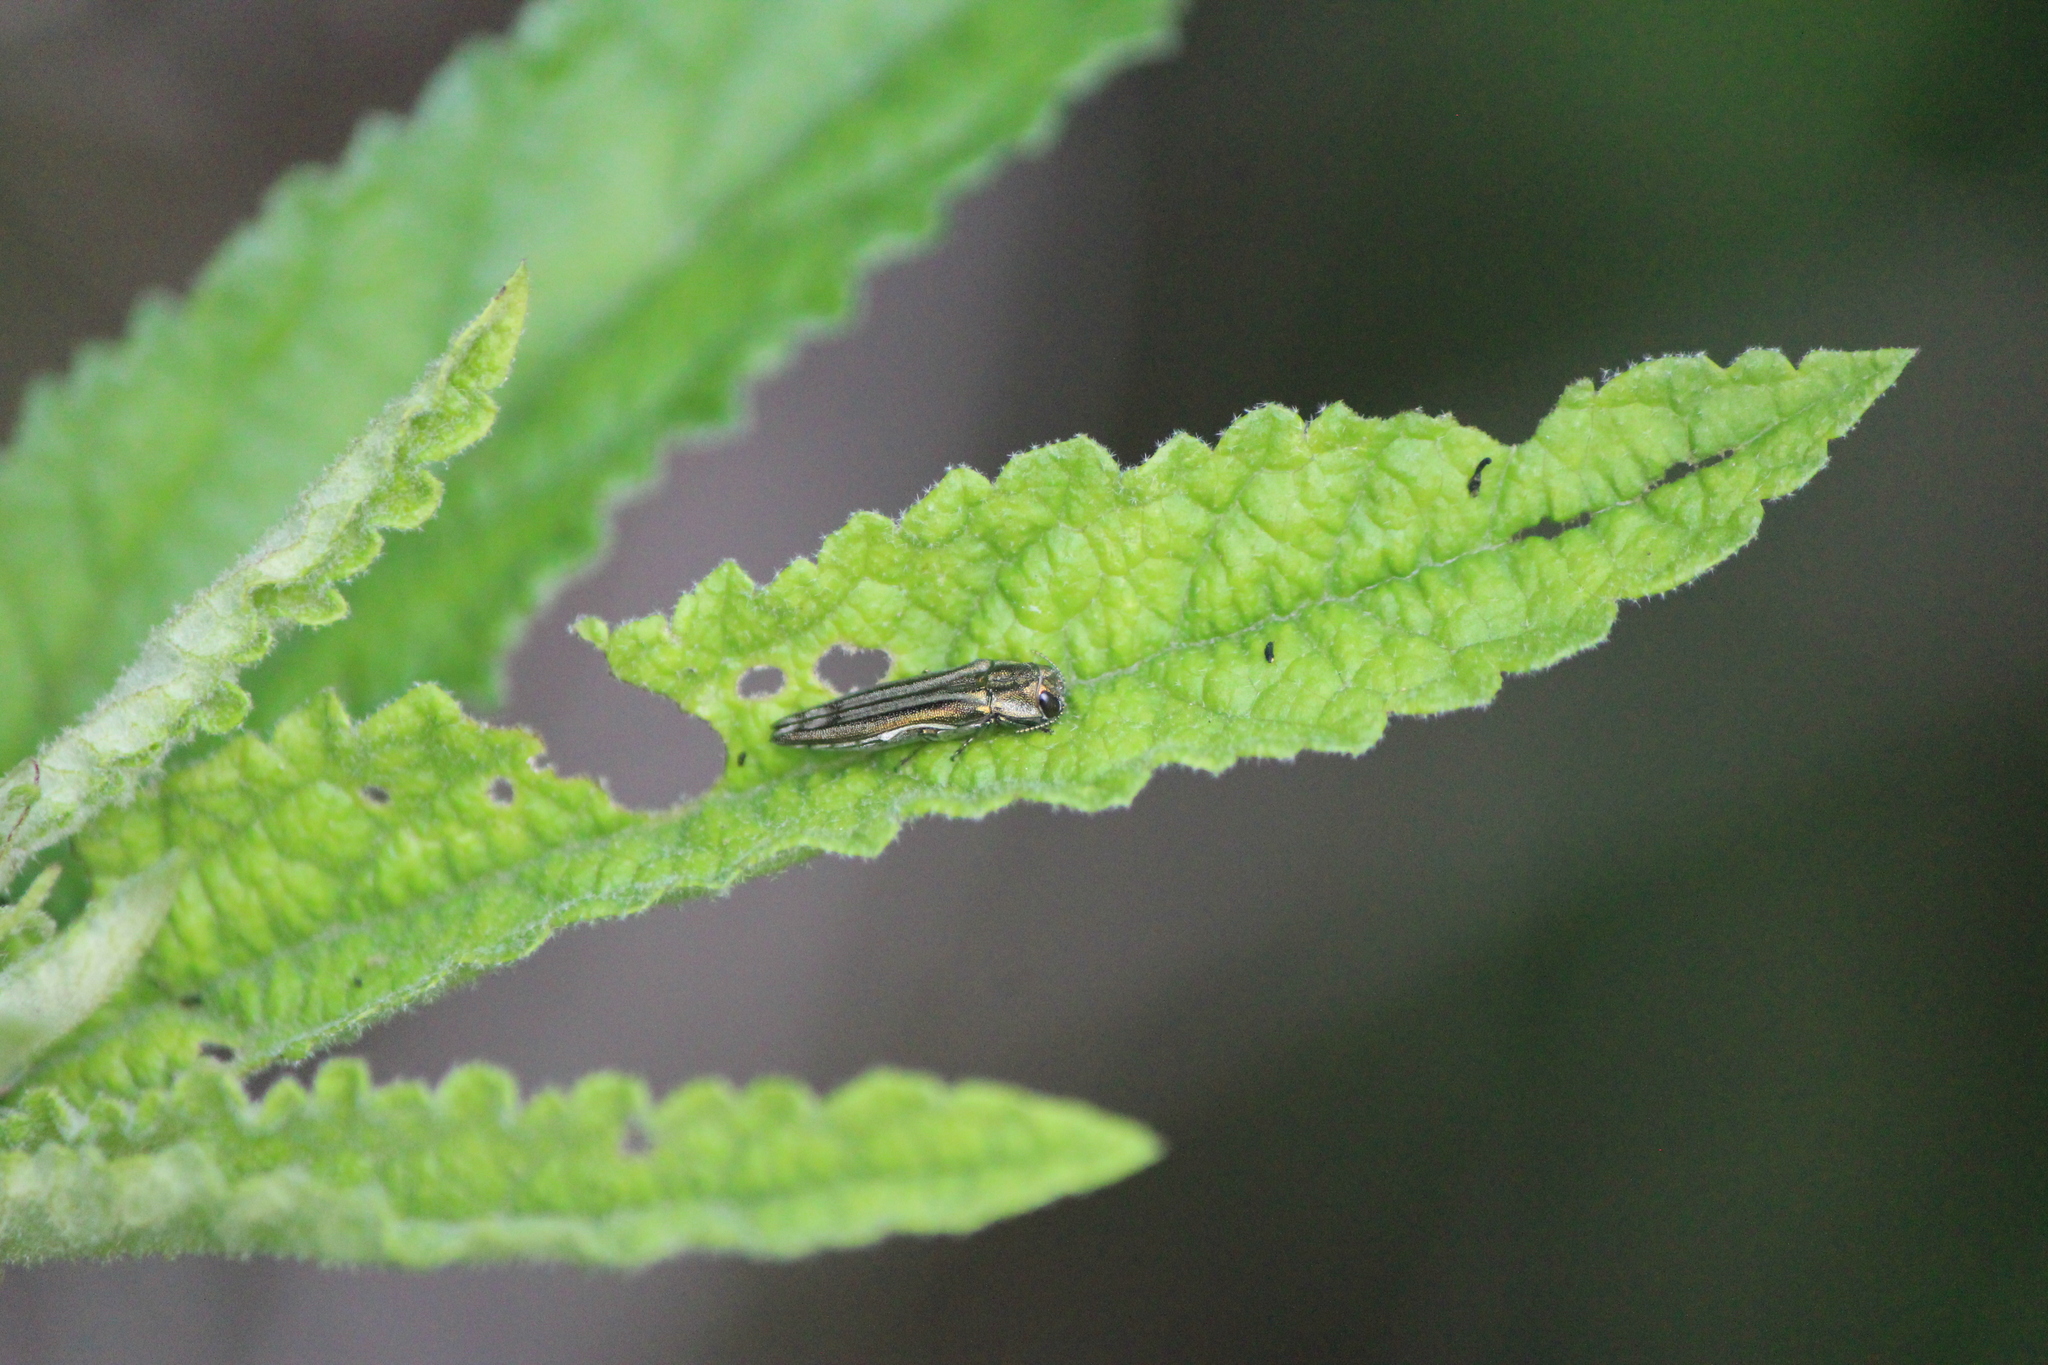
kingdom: Animalia
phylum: Arthropoda
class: Insecta
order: Coleoptera
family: Buprestidae
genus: Agrilus
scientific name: Agrilus aureus
